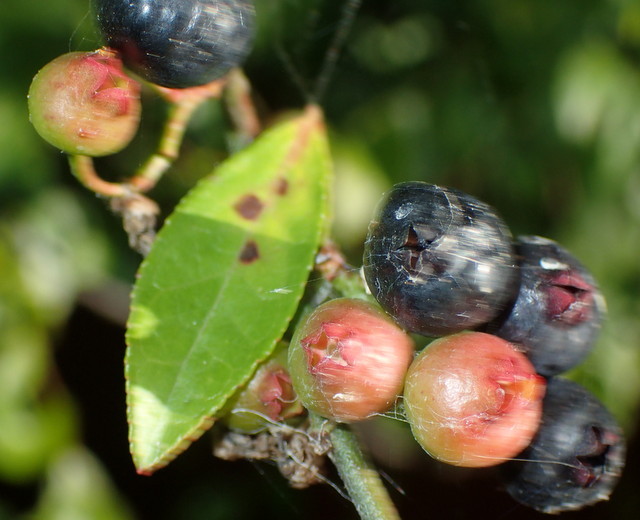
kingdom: Plantae
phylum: Tracheophyta
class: Magnoliopsida
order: Ericales
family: Ericaceae
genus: Vaccinium
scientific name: Vaccinium corymbosum
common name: Blueberry
